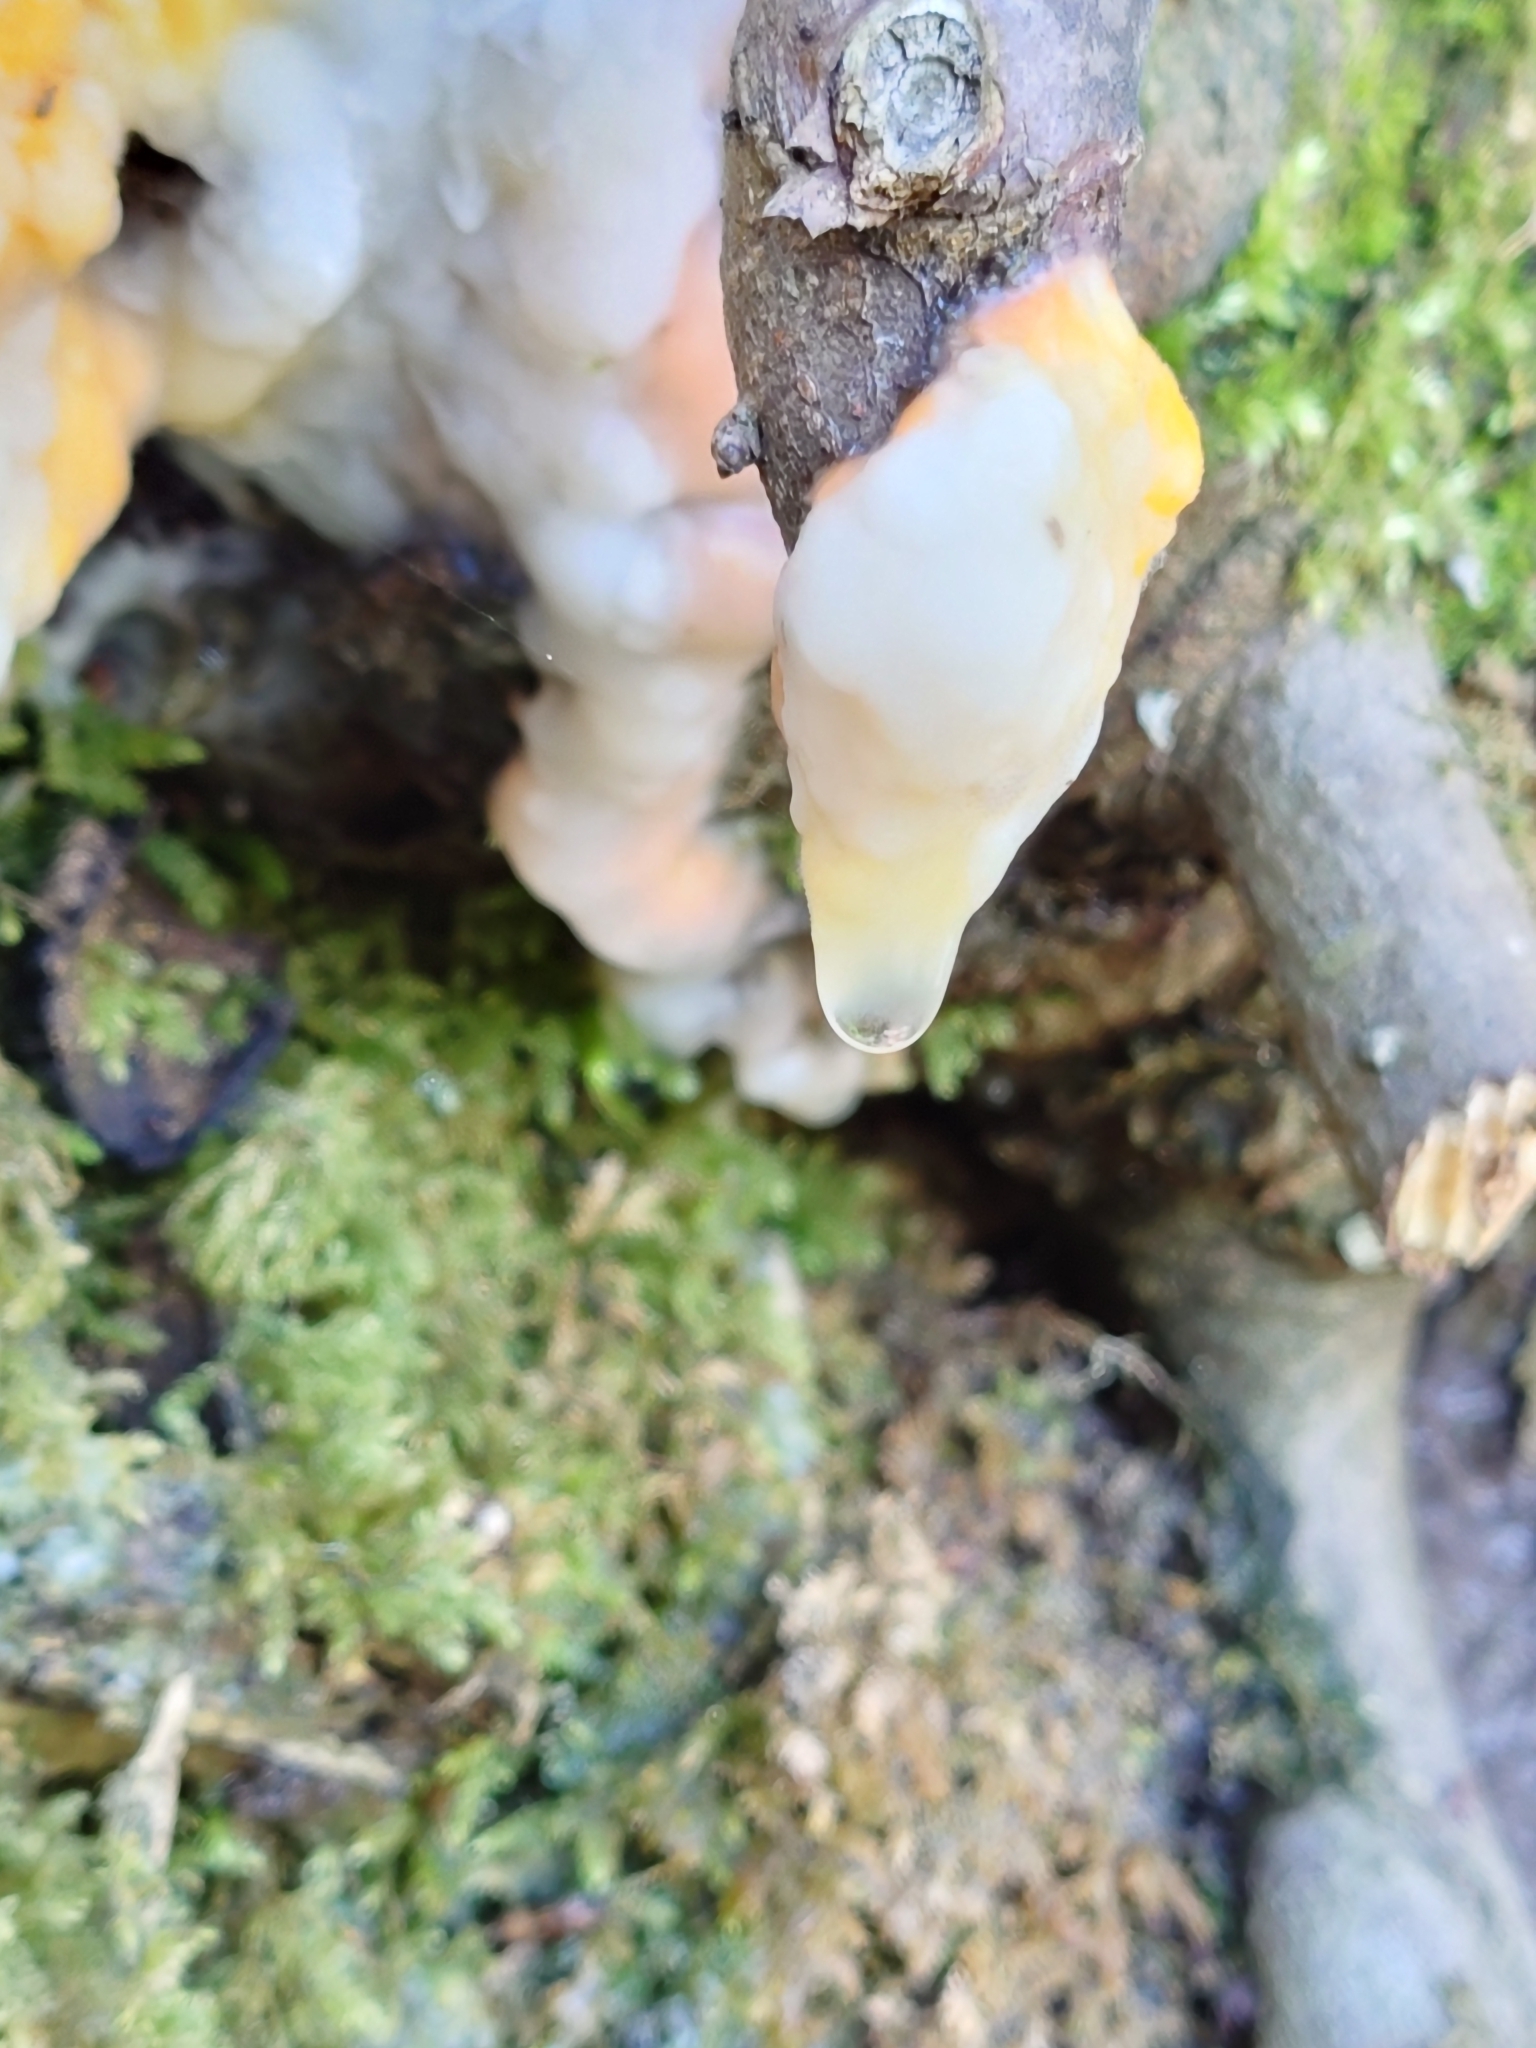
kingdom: Fungi
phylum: Ascomycota
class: Sordariomycetes
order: Hypocreales
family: Nectriaceae
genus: Fusicolla
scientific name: Fusicolla merismoides
